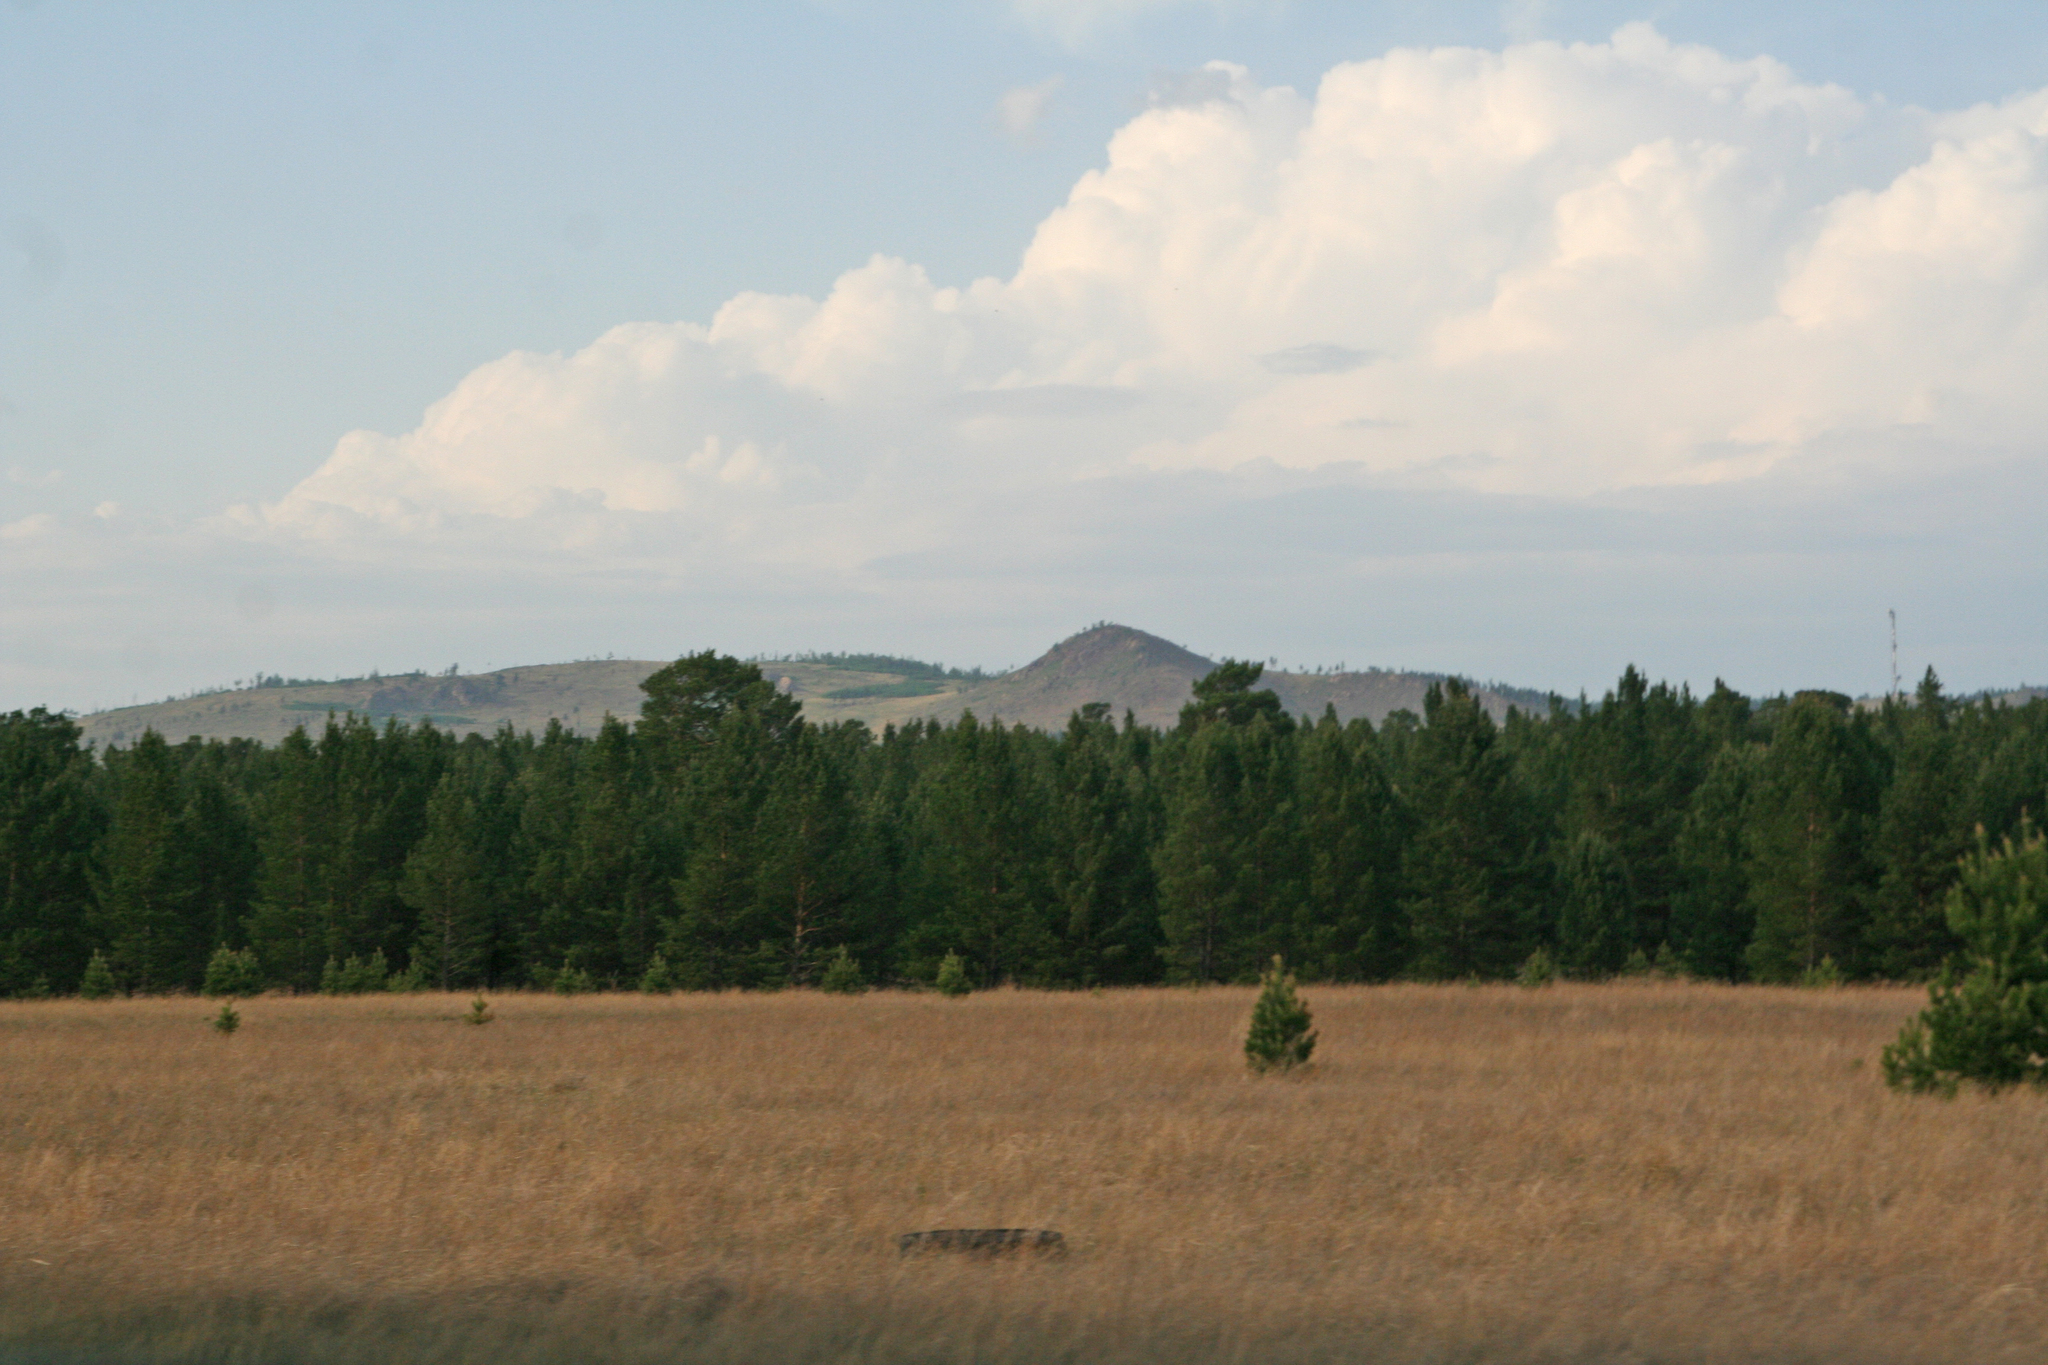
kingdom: Plantae
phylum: Tracheophyta
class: Pinopsida
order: Pinales
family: Pinaceae
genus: Pinus
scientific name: Pinus sylvestris
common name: Scots pine
